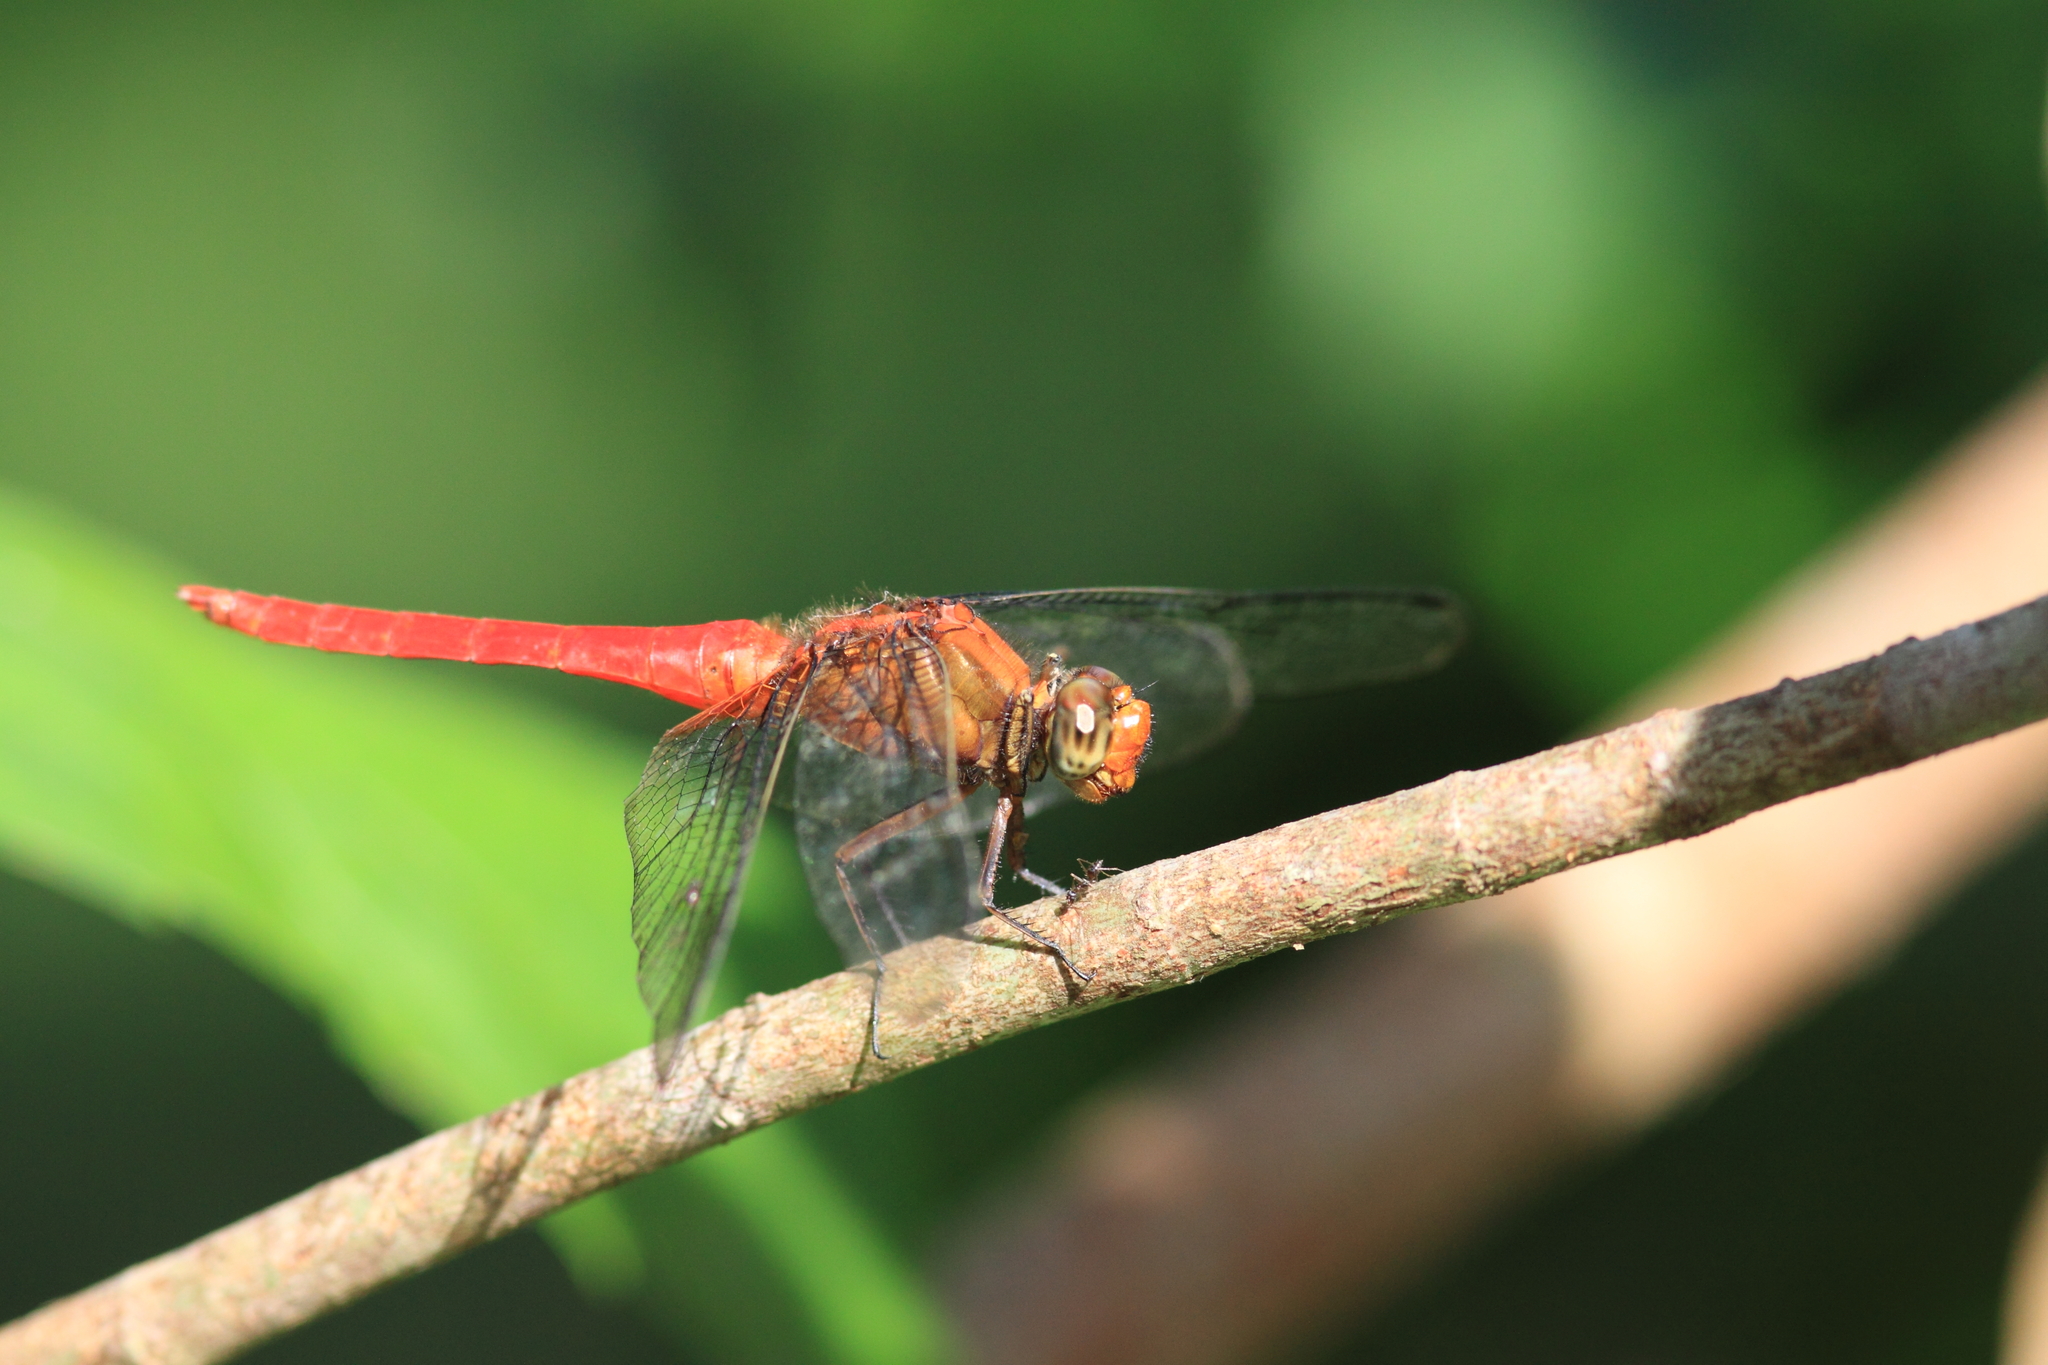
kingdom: Animalia
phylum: Arthropoda
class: Insecta
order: Odonata
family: Libellulidae
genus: Orthetrum
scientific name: Orthetrum testaceum
